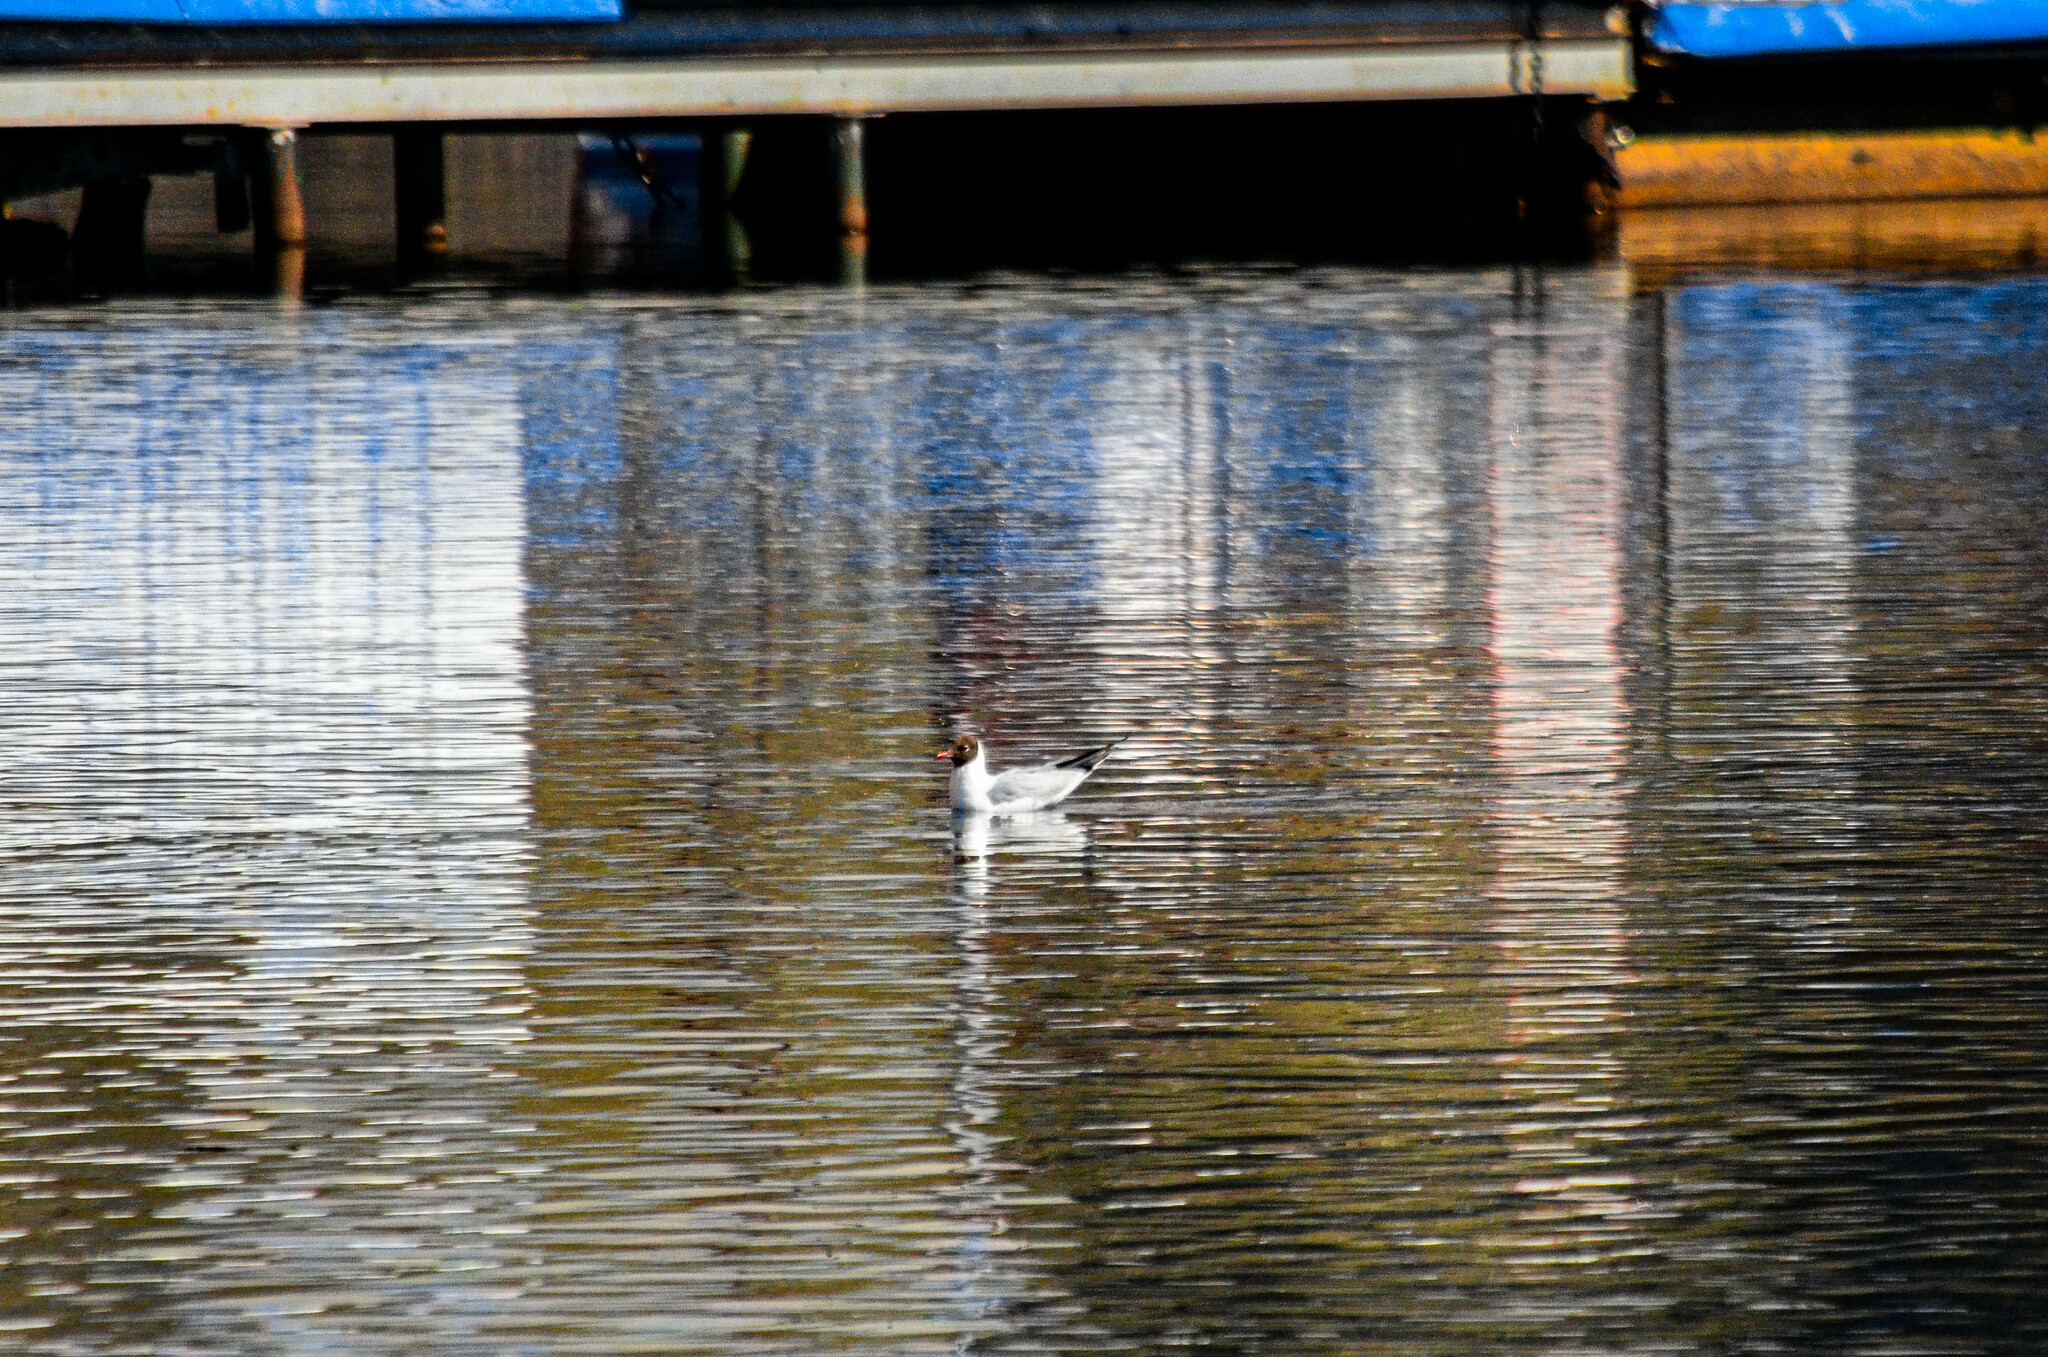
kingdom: Animalia
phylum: Chordata
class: Aves
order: Charadriiformes
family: Laridae
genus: Chroicocephalus
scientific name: Chroicocephalus ridibundus
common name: Black-headed gull
